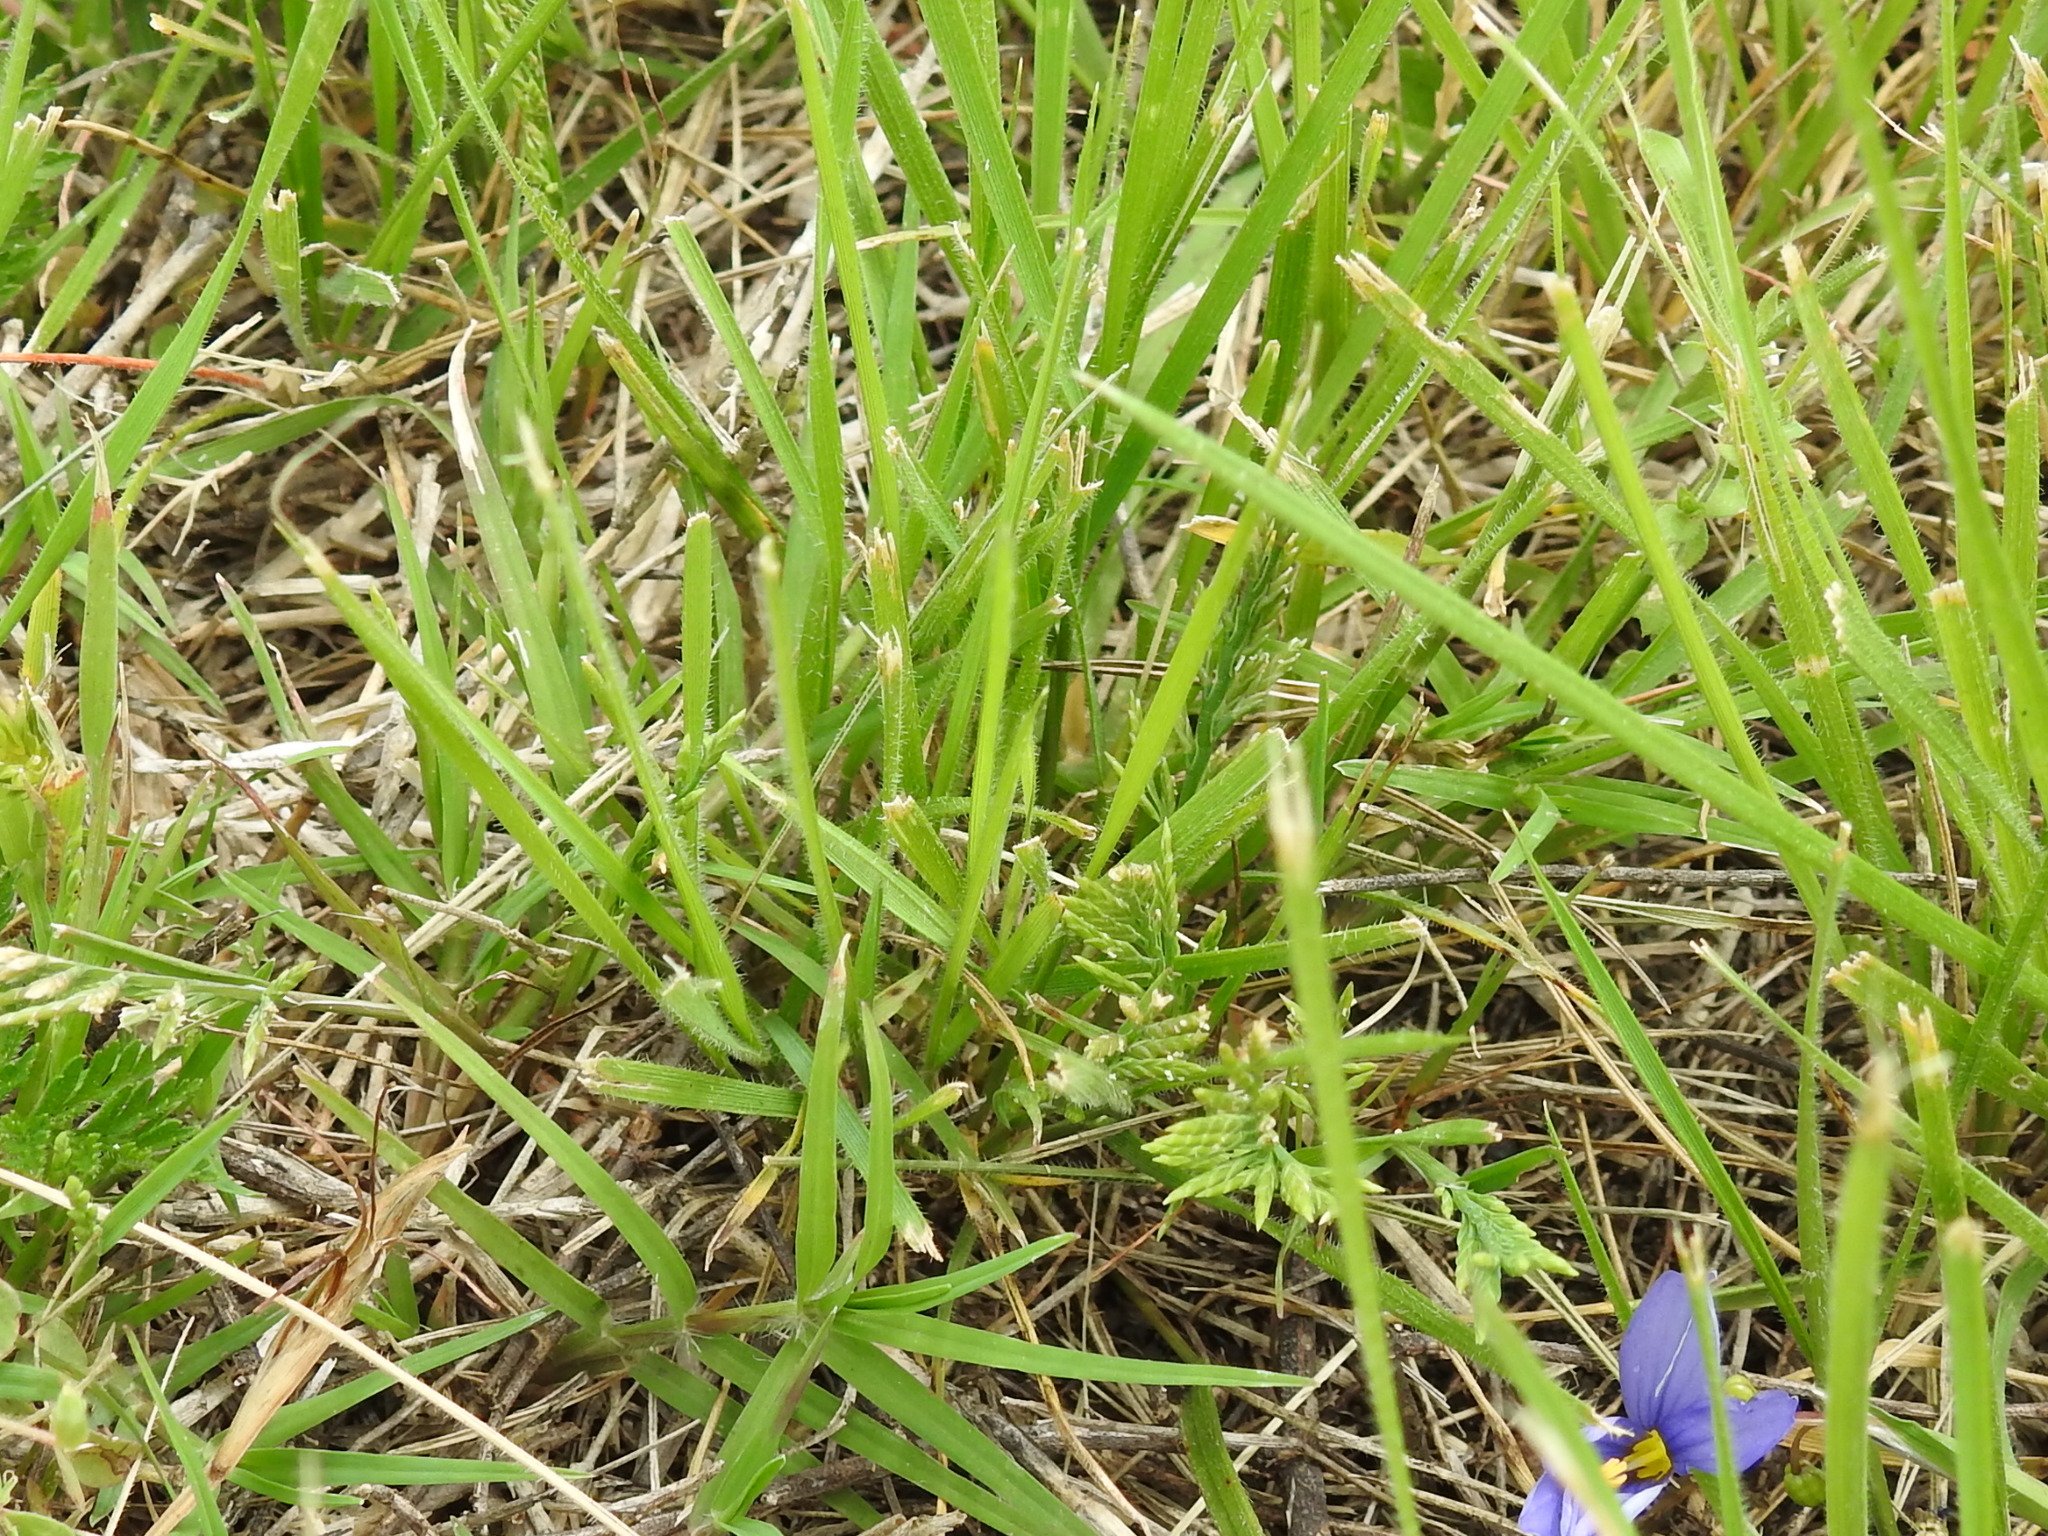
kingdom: Plantae
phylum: Tracheophyta
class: Liliopsida
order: Poales
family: Poaceae
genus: Catapodium
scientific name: Catapodium rigidum
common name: Fern-grass
